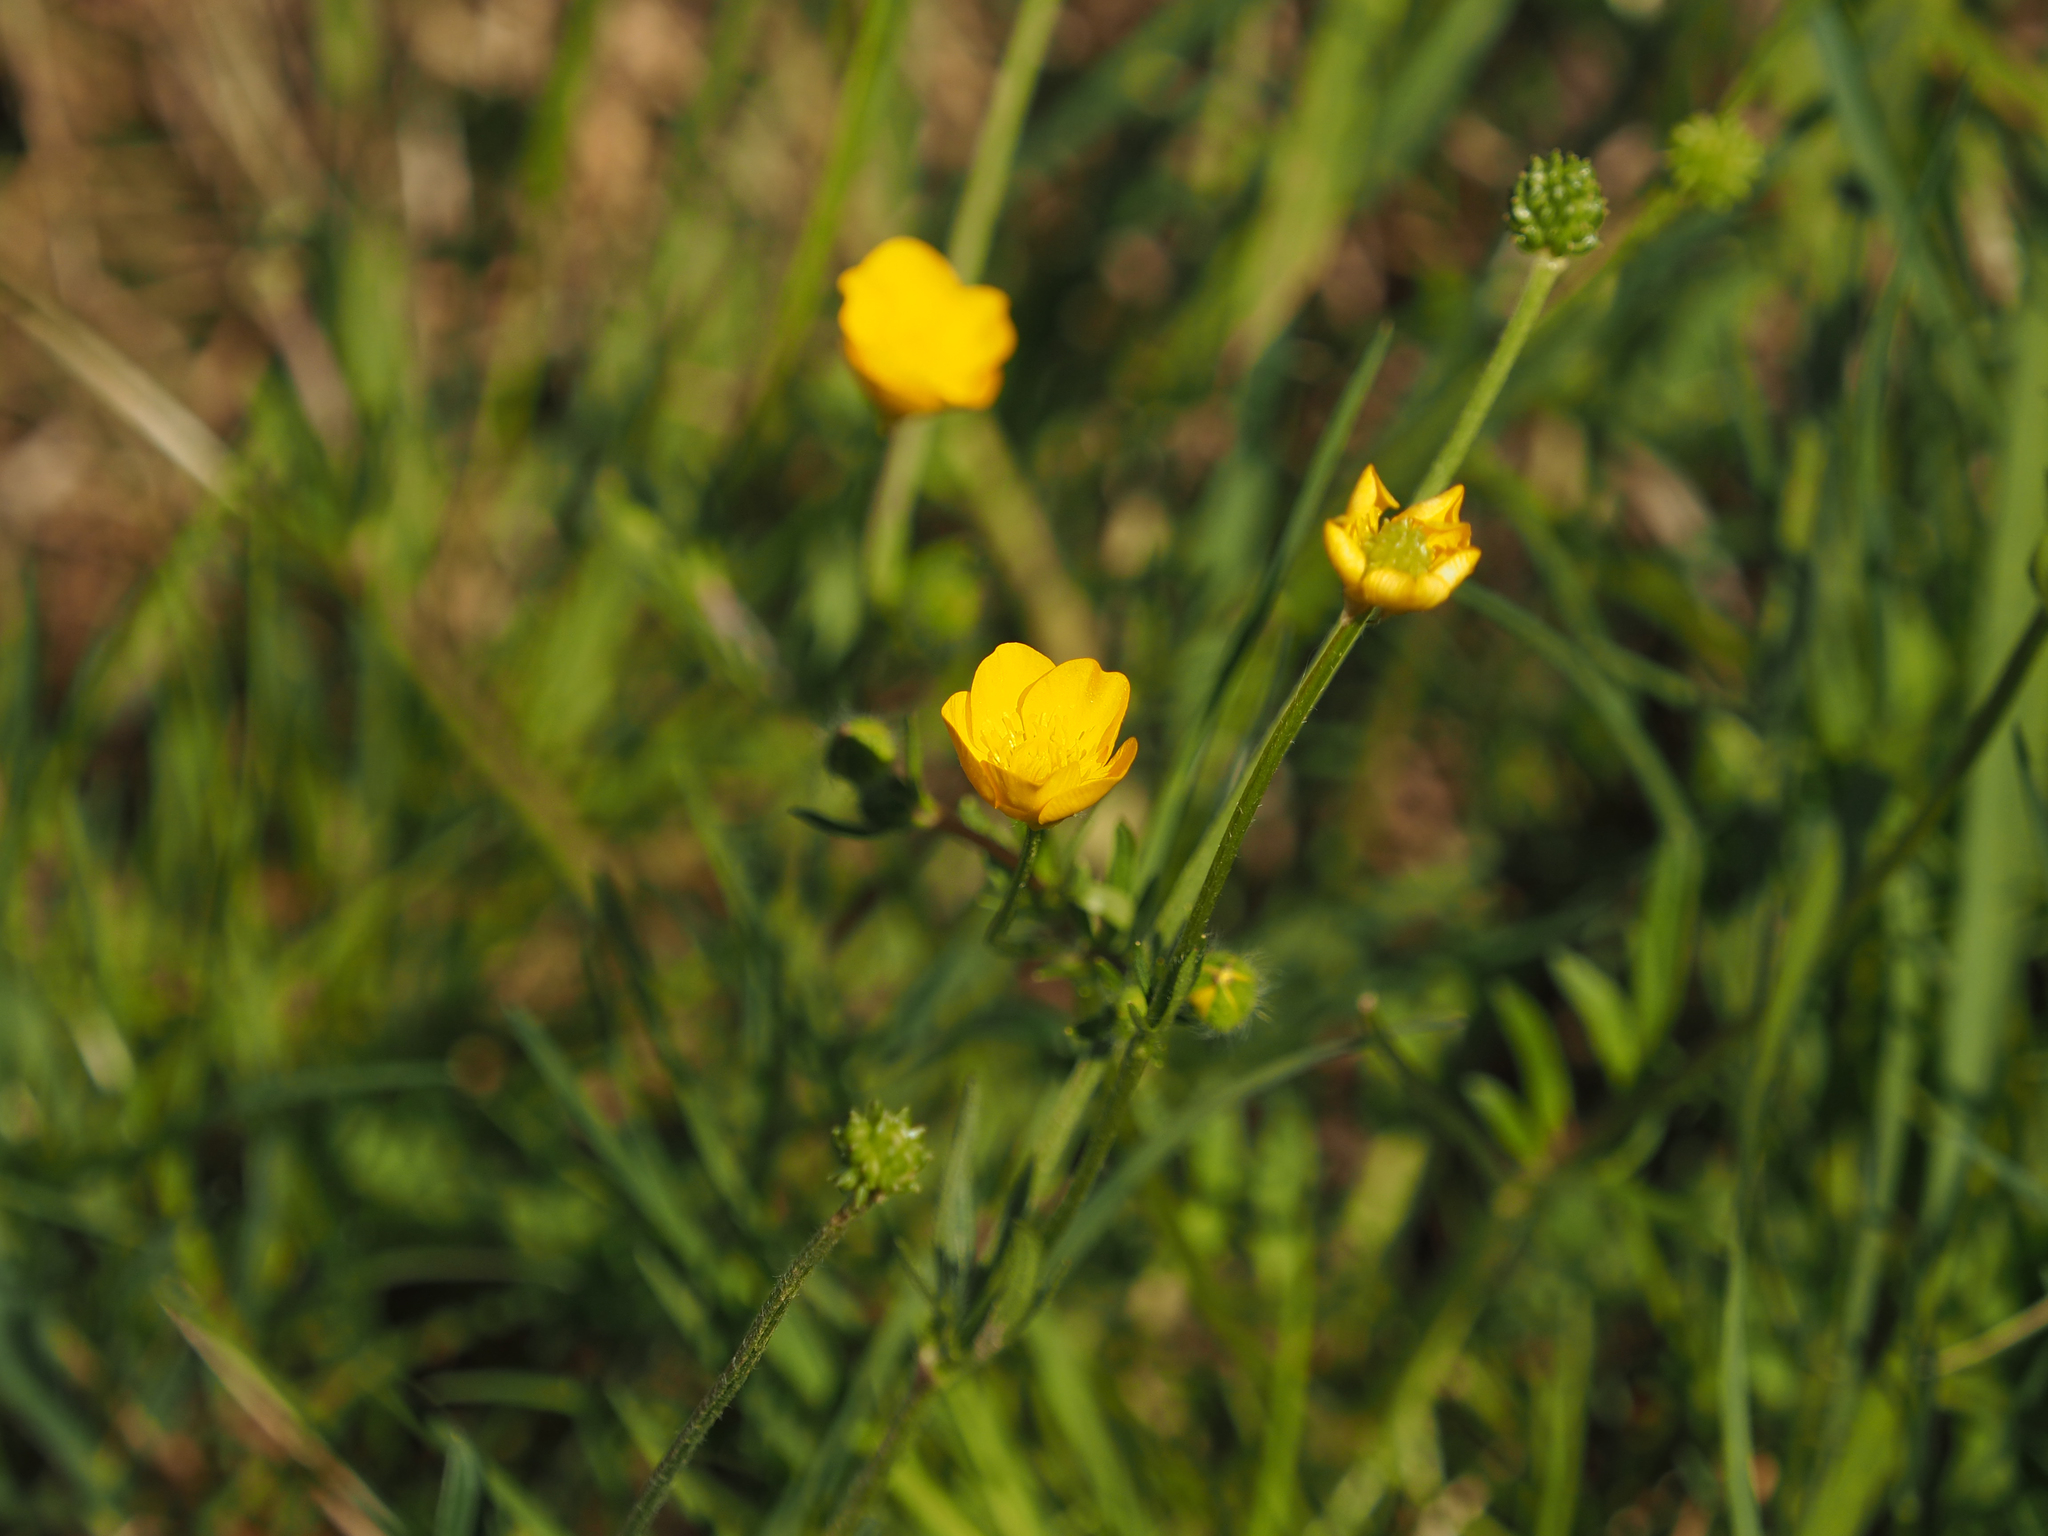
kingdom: Plantae
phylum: Tracheophyta
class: Magnoliopsida
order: Ranunculales
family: Ranunculaceae
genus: Ranunculus
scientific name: Ranunculus bulbosus
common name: Bulbous buttercup
